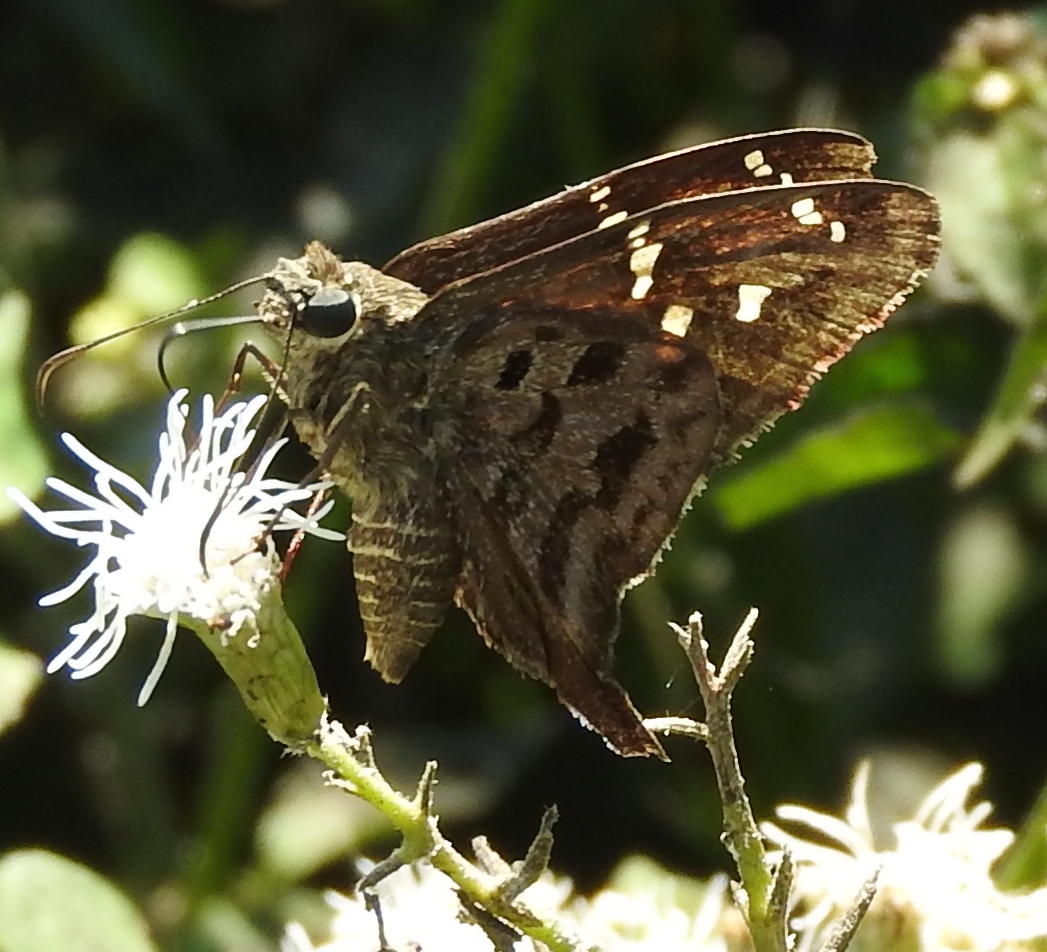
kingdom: Animalia
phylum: Arthropoda
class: Insecta
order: Lepidoptera
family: Hesperiidae
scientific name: Hesperiidae
